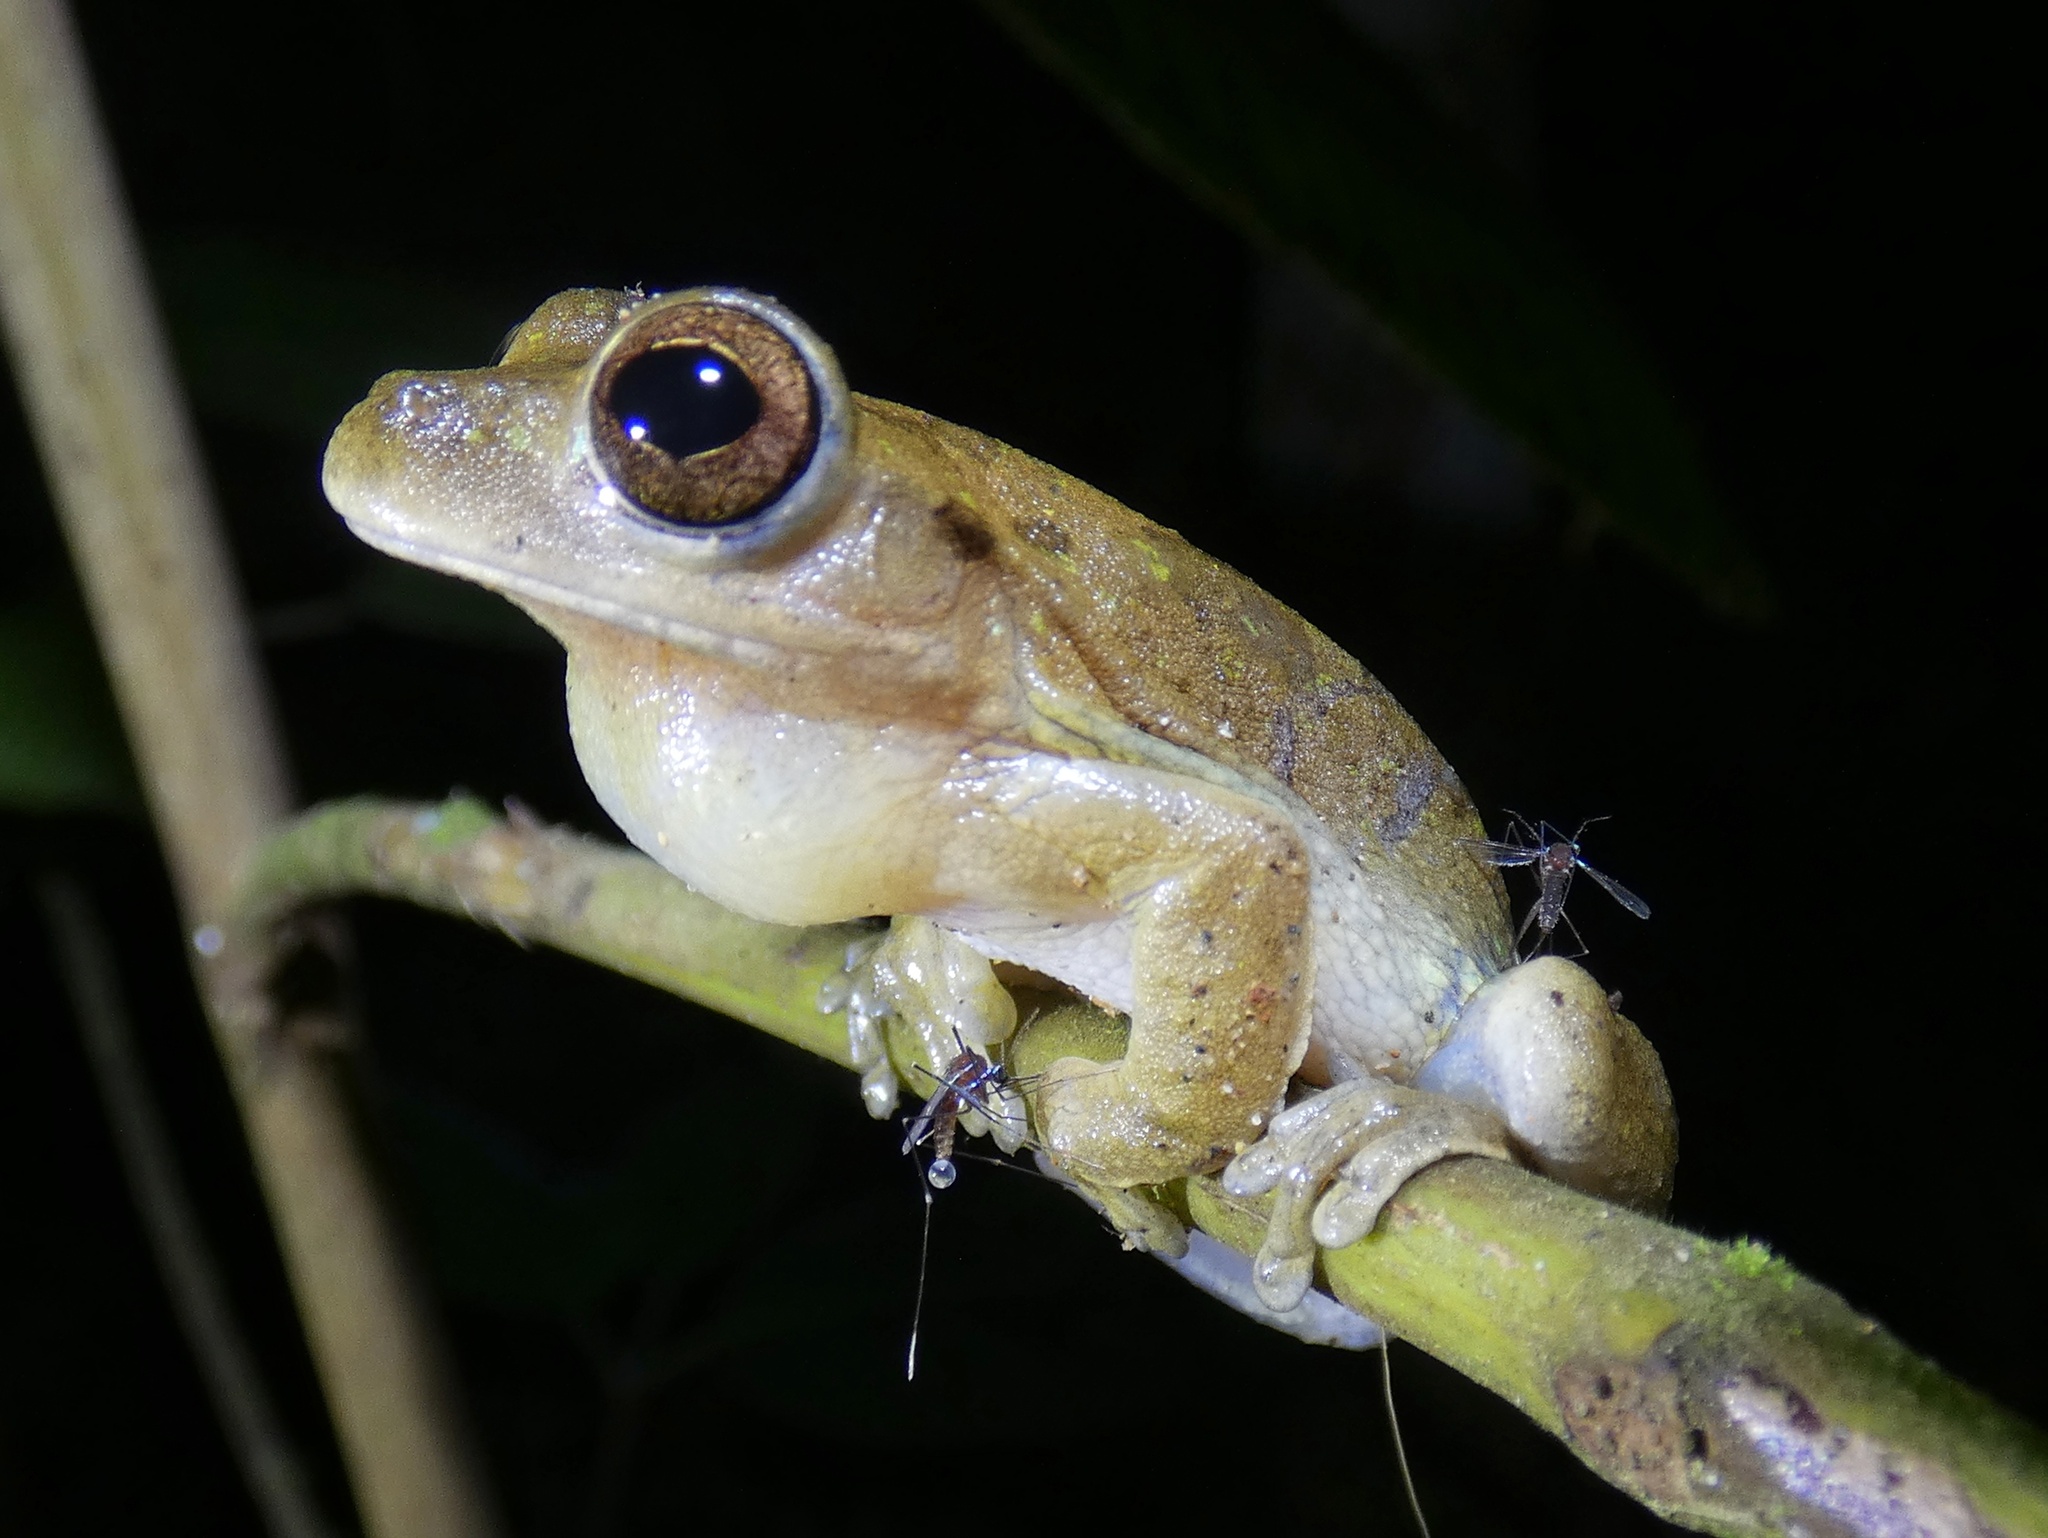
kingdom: Animalia
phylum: Chordata
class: Amphibia
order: Anura
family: Hylidae
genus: Smilisca
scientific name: Smilisca sila
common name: Panama cross-banded treefrog
